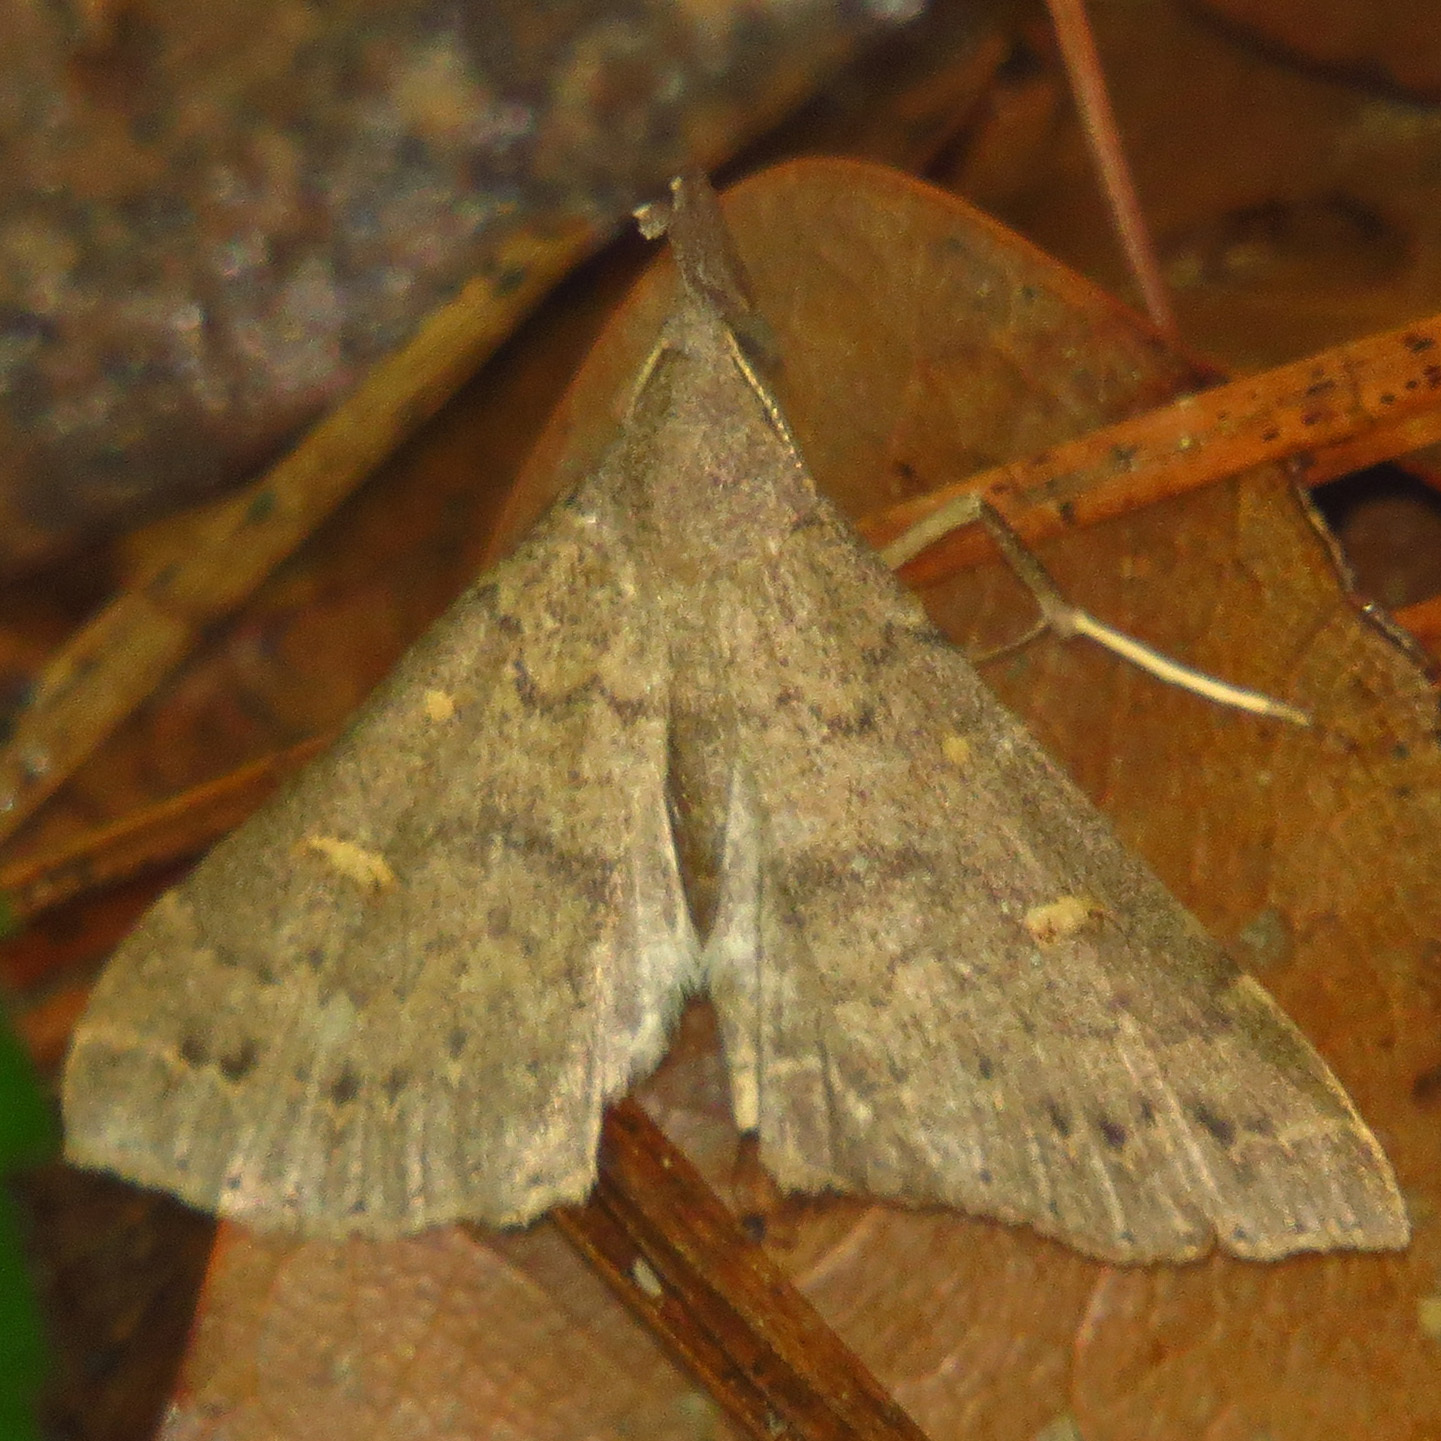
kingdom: Animalia
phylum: Arthropoda
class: Insecta
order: Lepidoptera
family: Erebidae
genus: Renia
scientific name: Renia adspergillus
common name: Speckled renia moth
